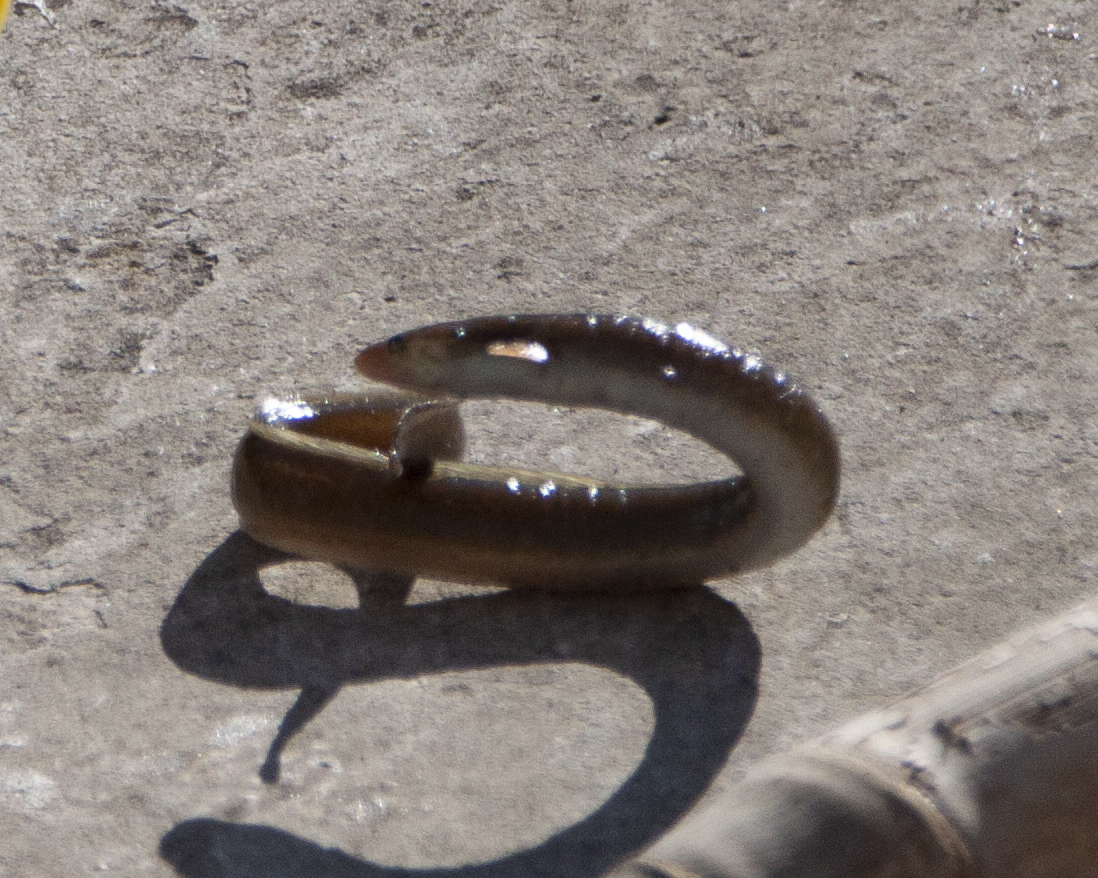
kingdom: Animalia
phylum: Chordata
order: Anguilliformes
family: Anguillidae
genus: Anguilla
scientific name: Anguilla anguilla
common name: European eel
